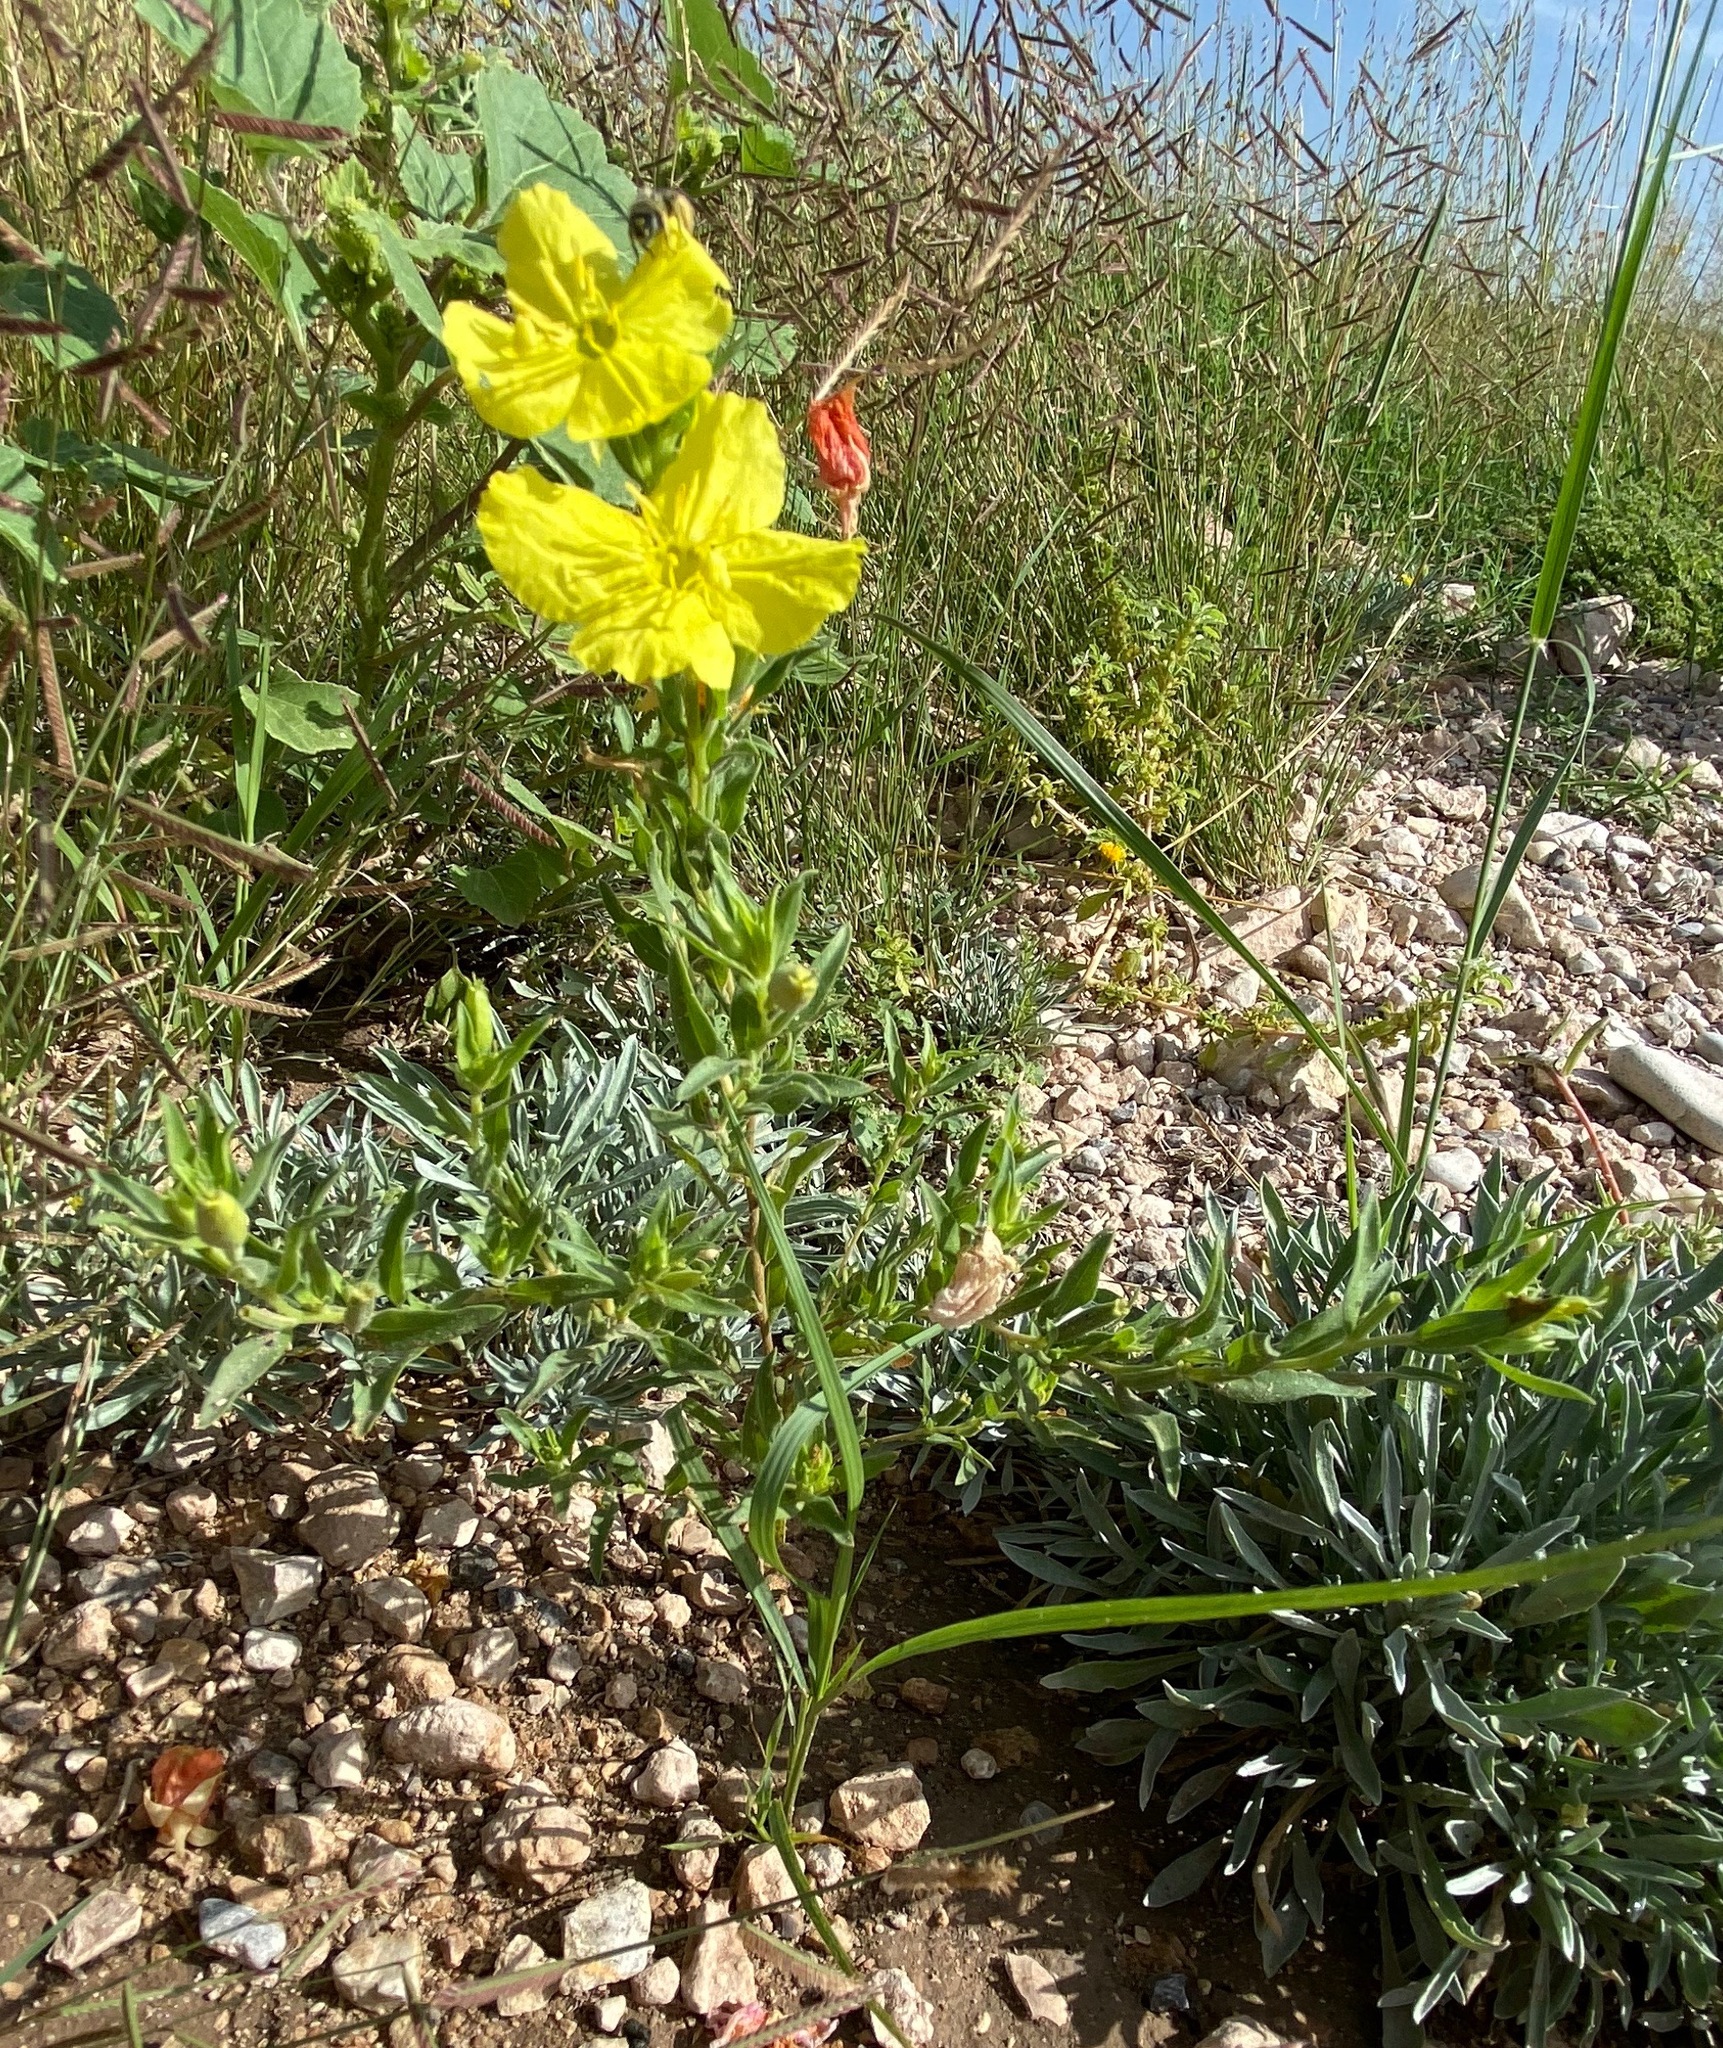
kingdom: Plantae
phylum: Tracheophyta
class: Magnoliopsida
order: Myrtales
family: Onagraceae
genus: Oenothera
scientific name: Oenothera tubicula
